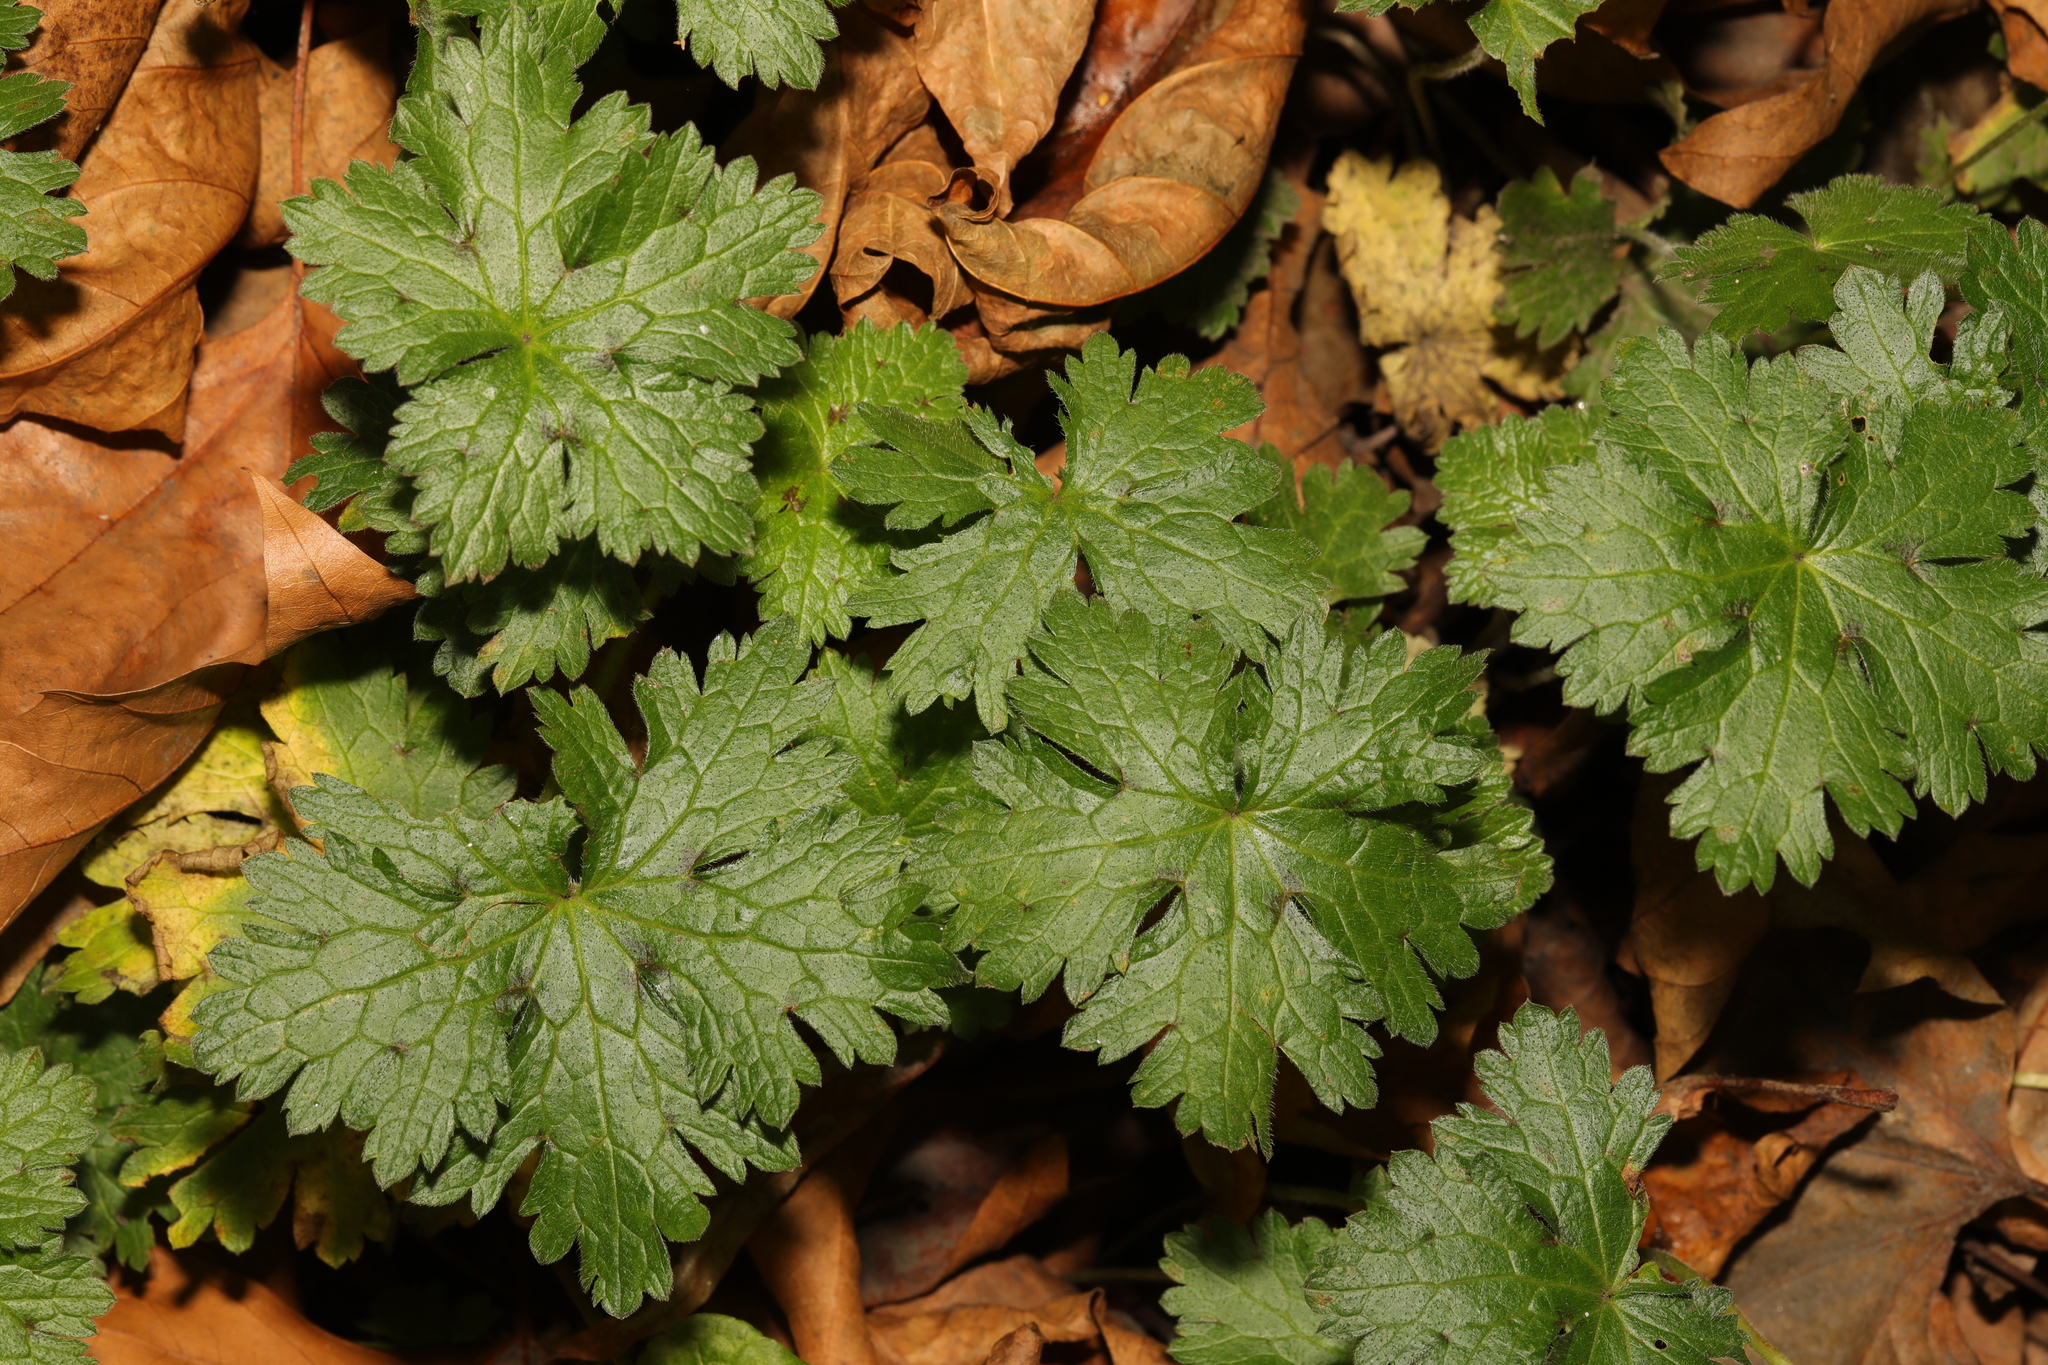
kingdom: Plantae
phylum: Tracheophyta
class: Magnoliopsida
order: Geraniales
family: Geraniaceae
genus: Geranium
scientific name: Geranium oxonianum
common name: Druce's crane's-bill
